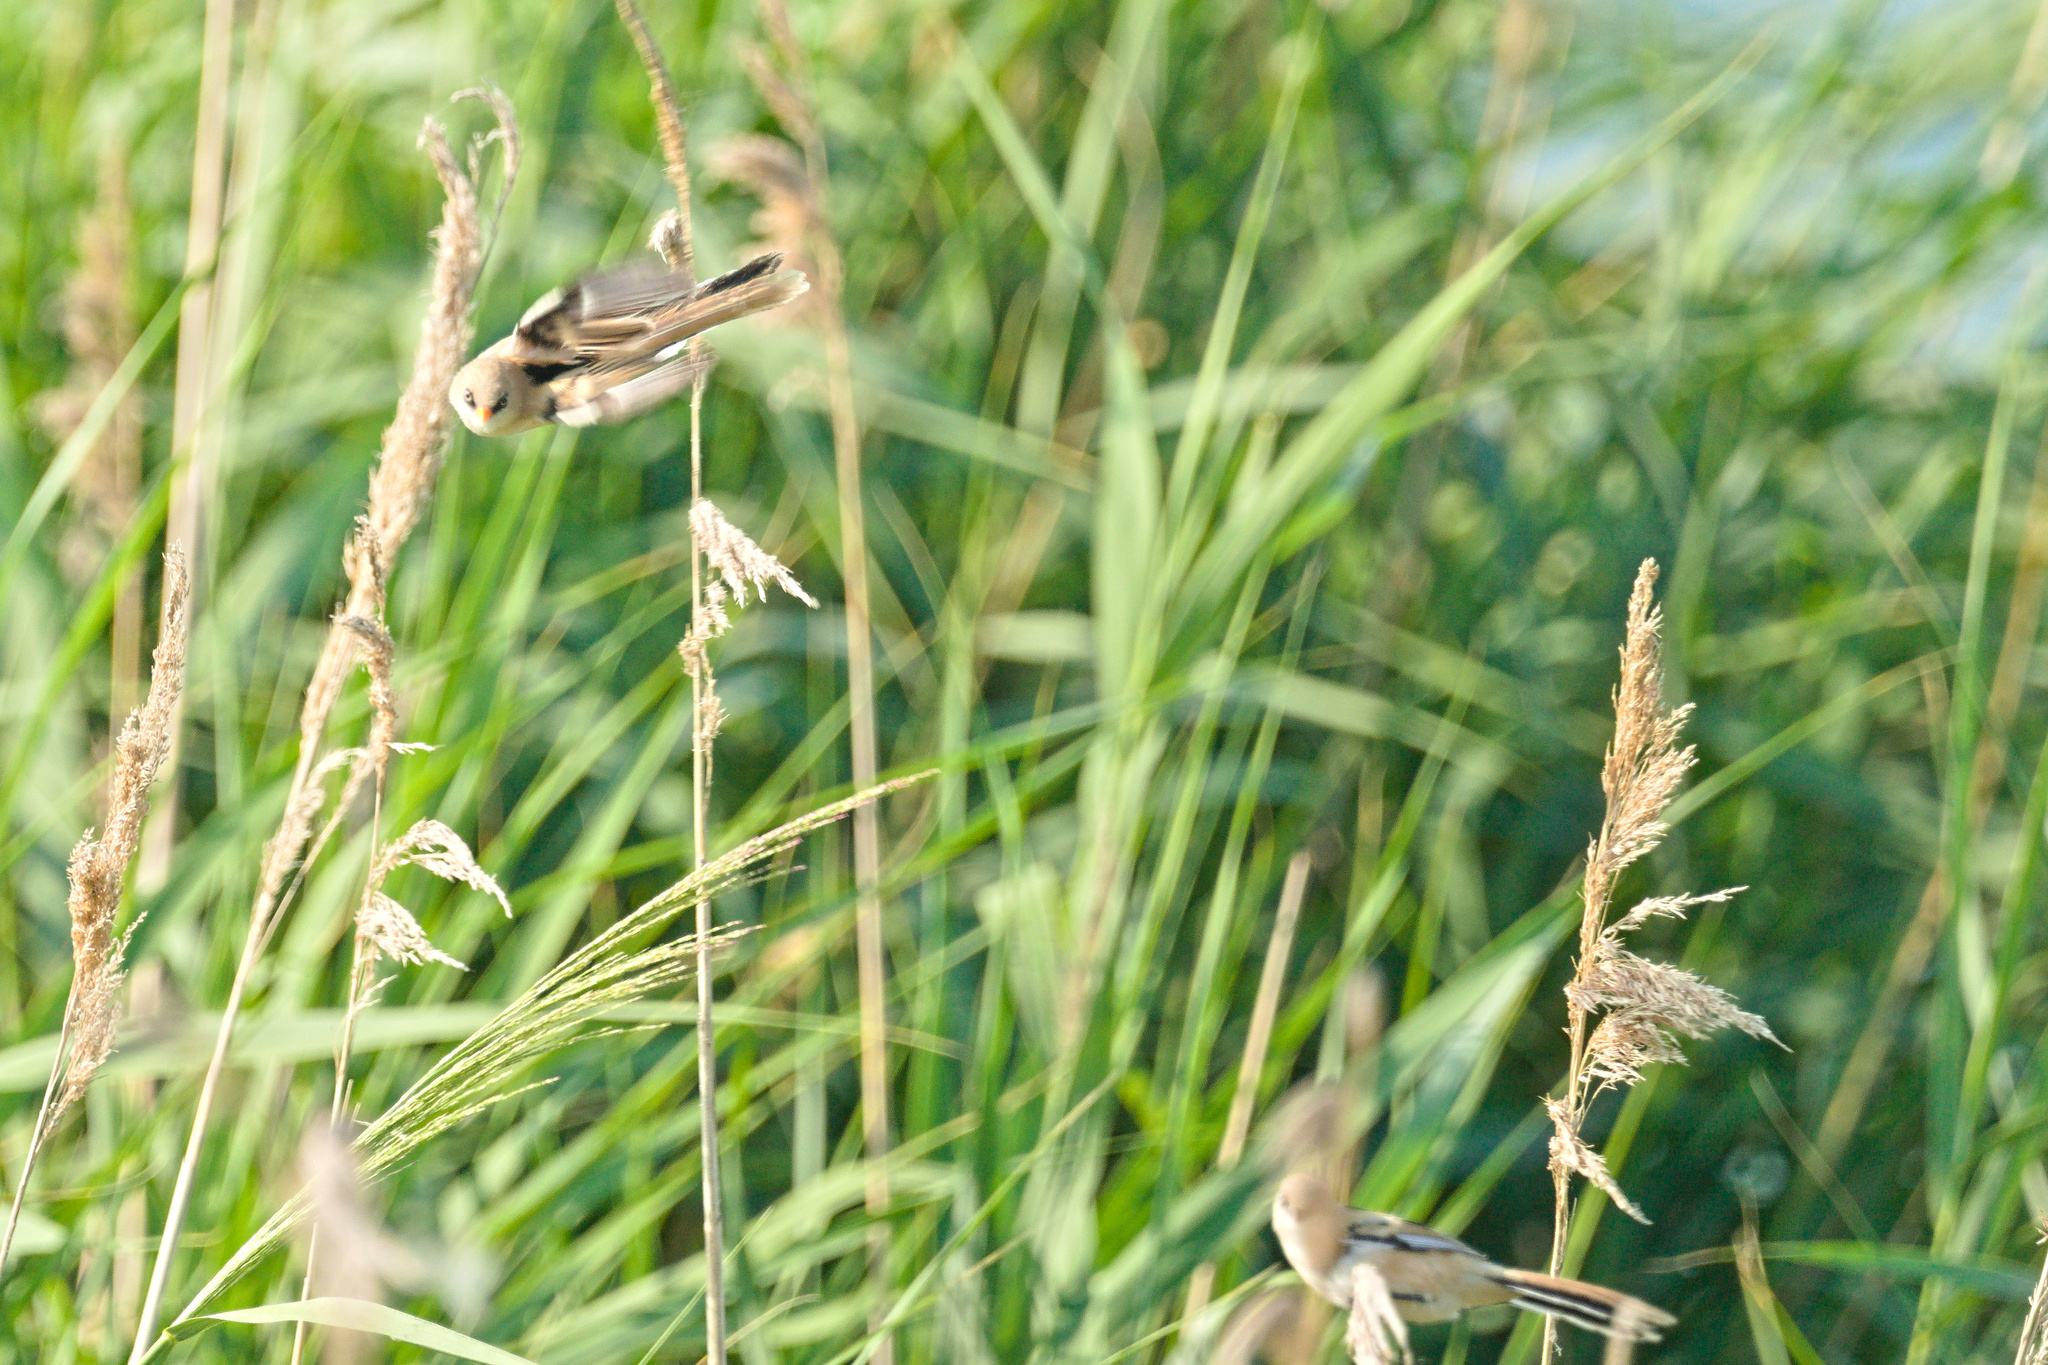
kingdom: Animalia
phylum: Chordata
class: Aves
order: Passeriformes
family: Panuridae
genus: Panurus
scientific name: Panurus biarmicus
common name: Bearded reedling
